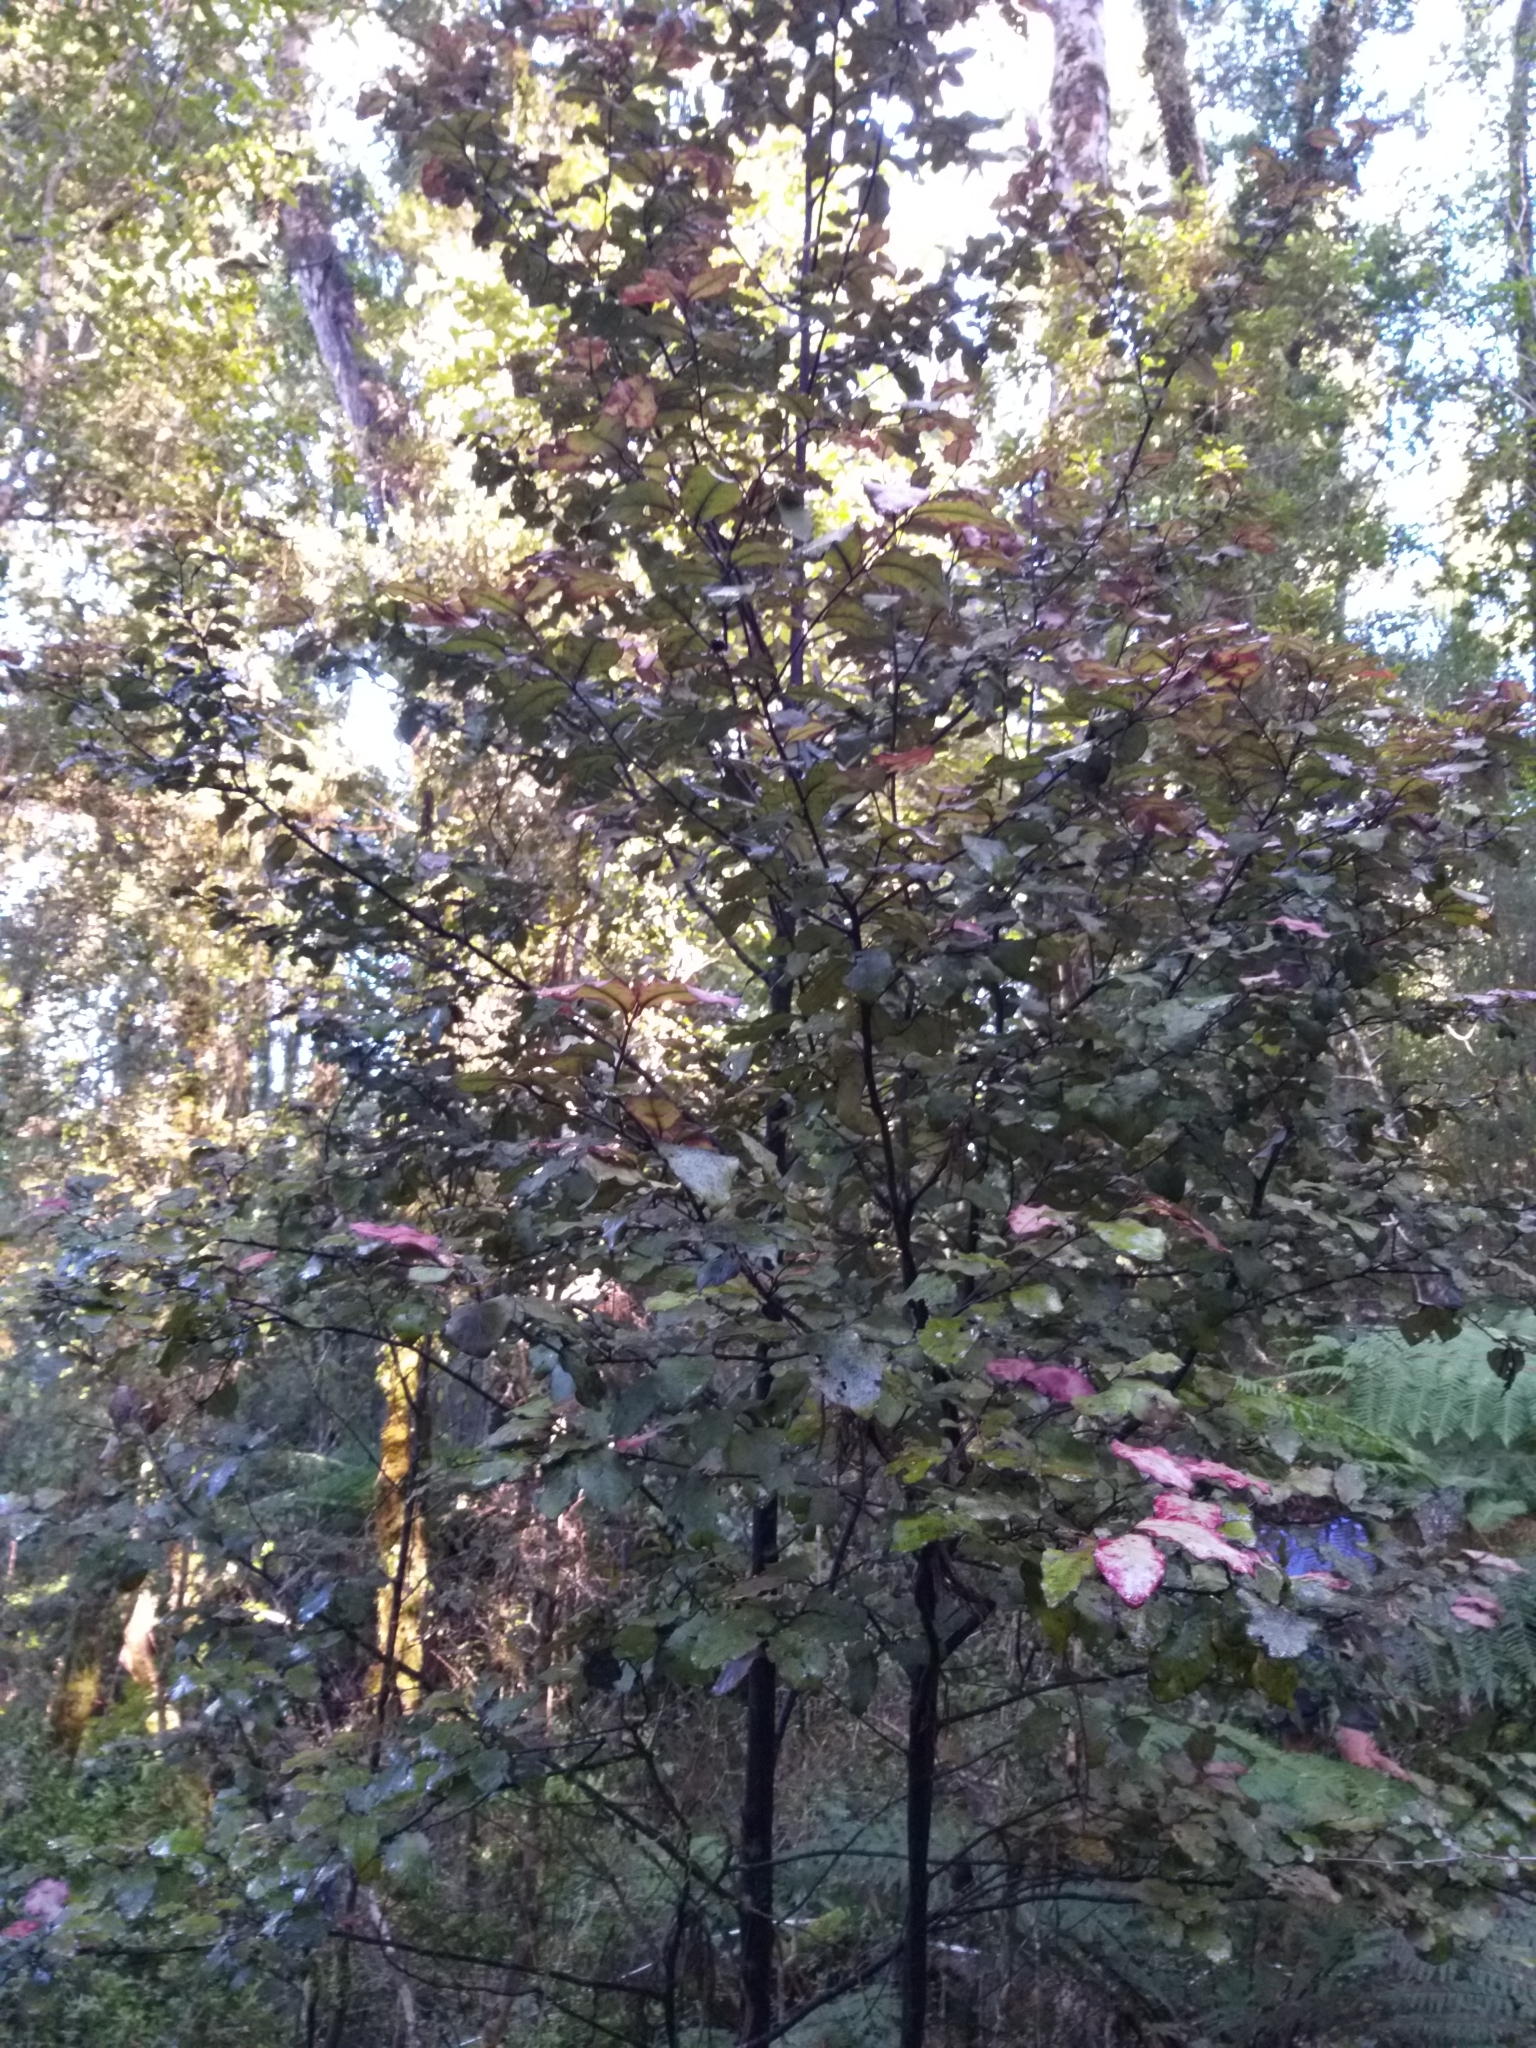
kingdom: Plantae
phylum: Tracheophyta
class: Magnoliopsida
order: Canellales
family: Winteraceae
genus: Pseudowintera
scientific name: Pseudowintera colorata
